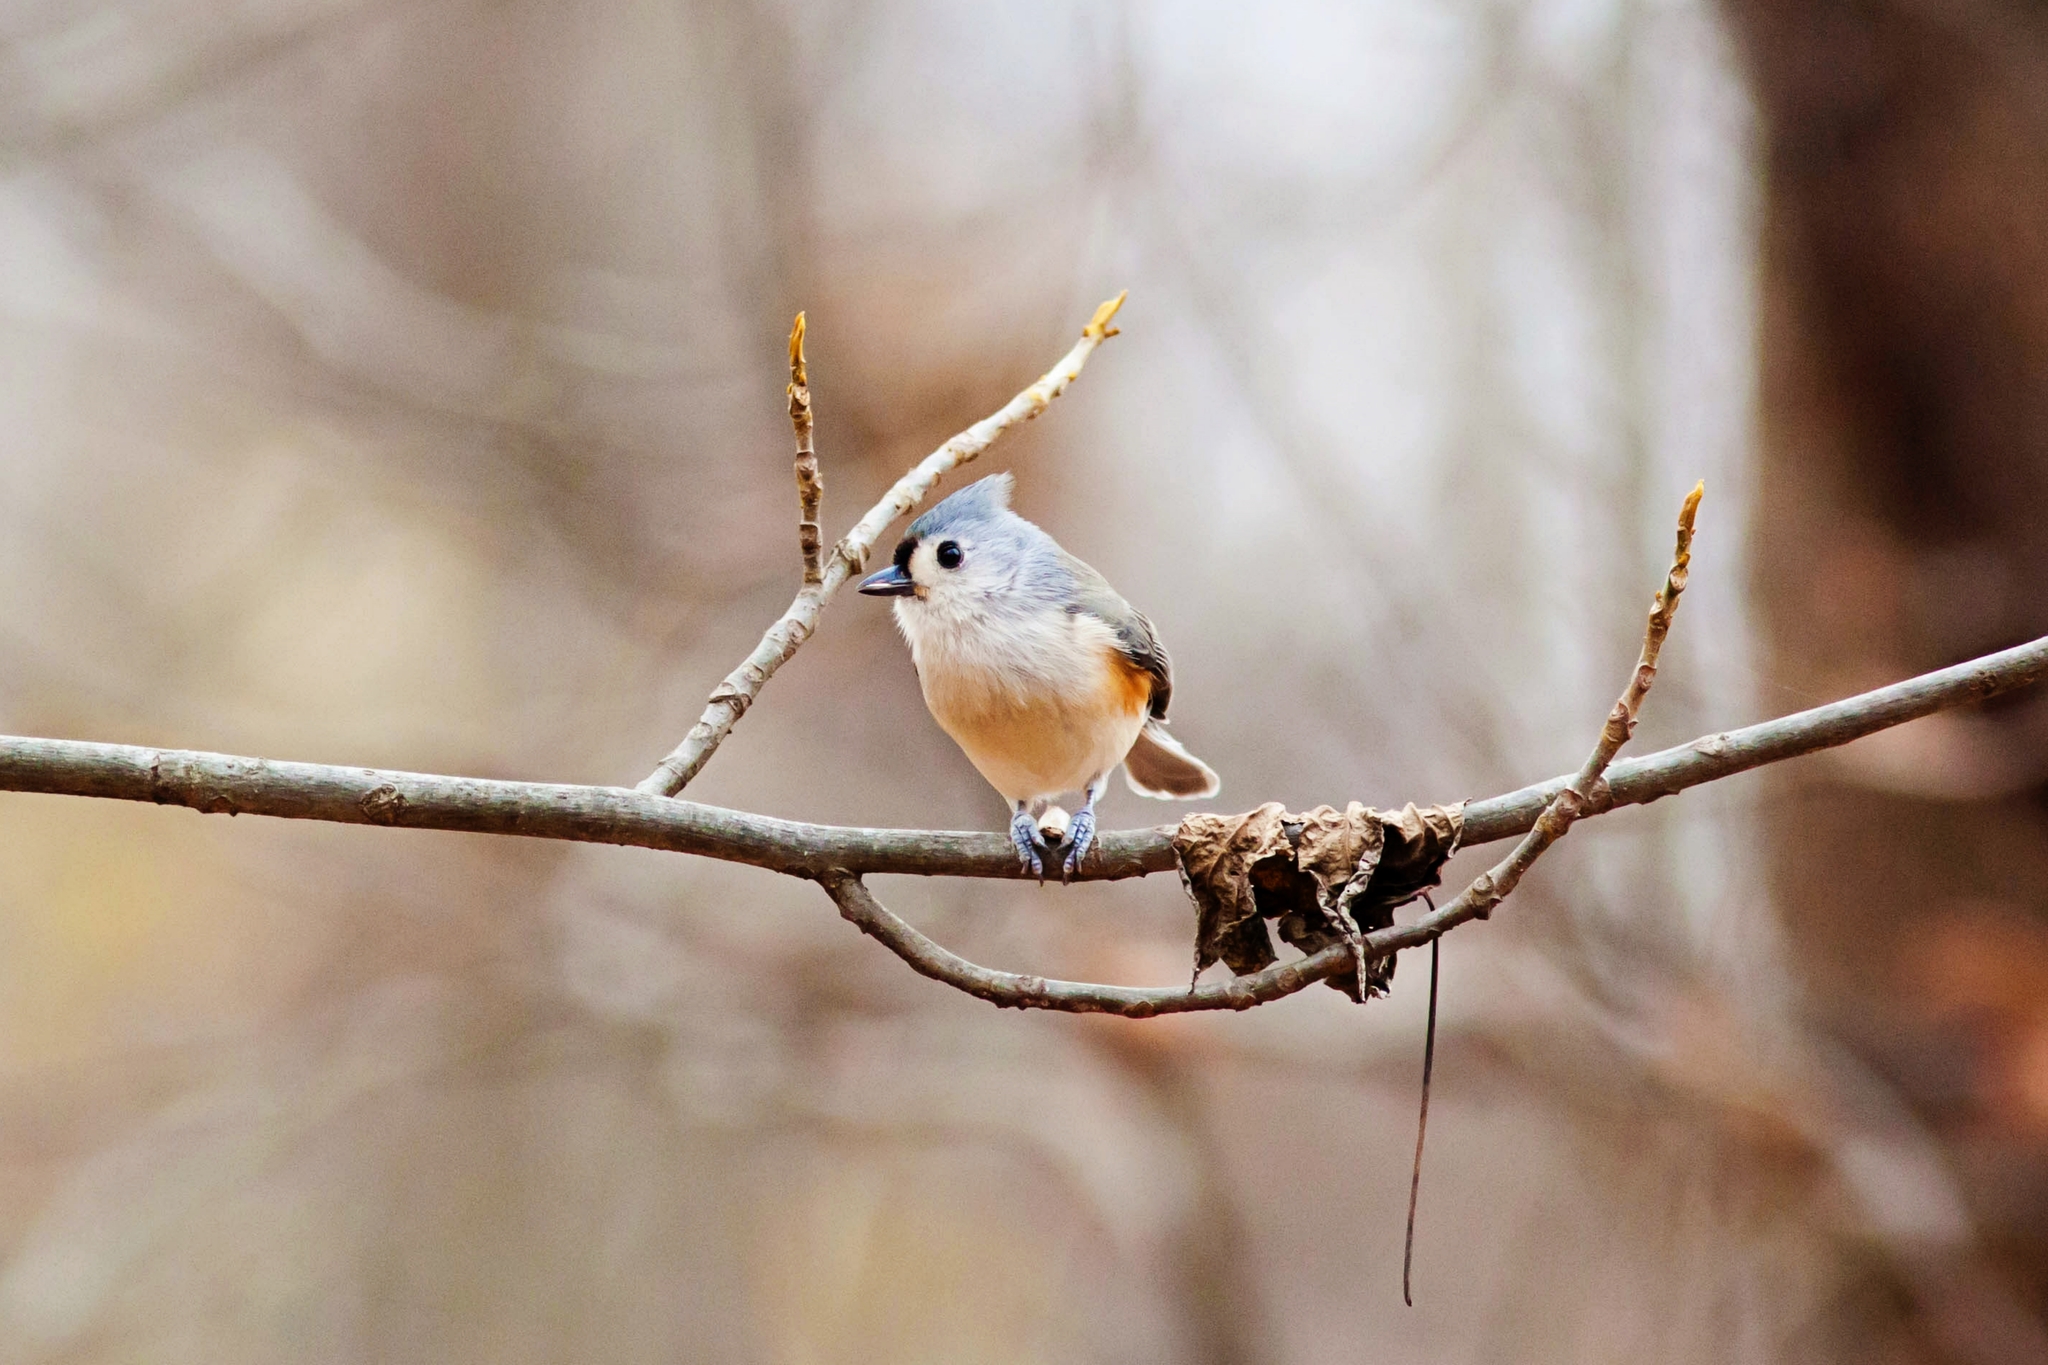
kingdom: Animalia
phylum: Chordata
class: Aves
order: Passeriformes
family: Paridae
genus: Baeolophus
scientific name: Baeolophus bicolor
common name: Tufted titmouse
